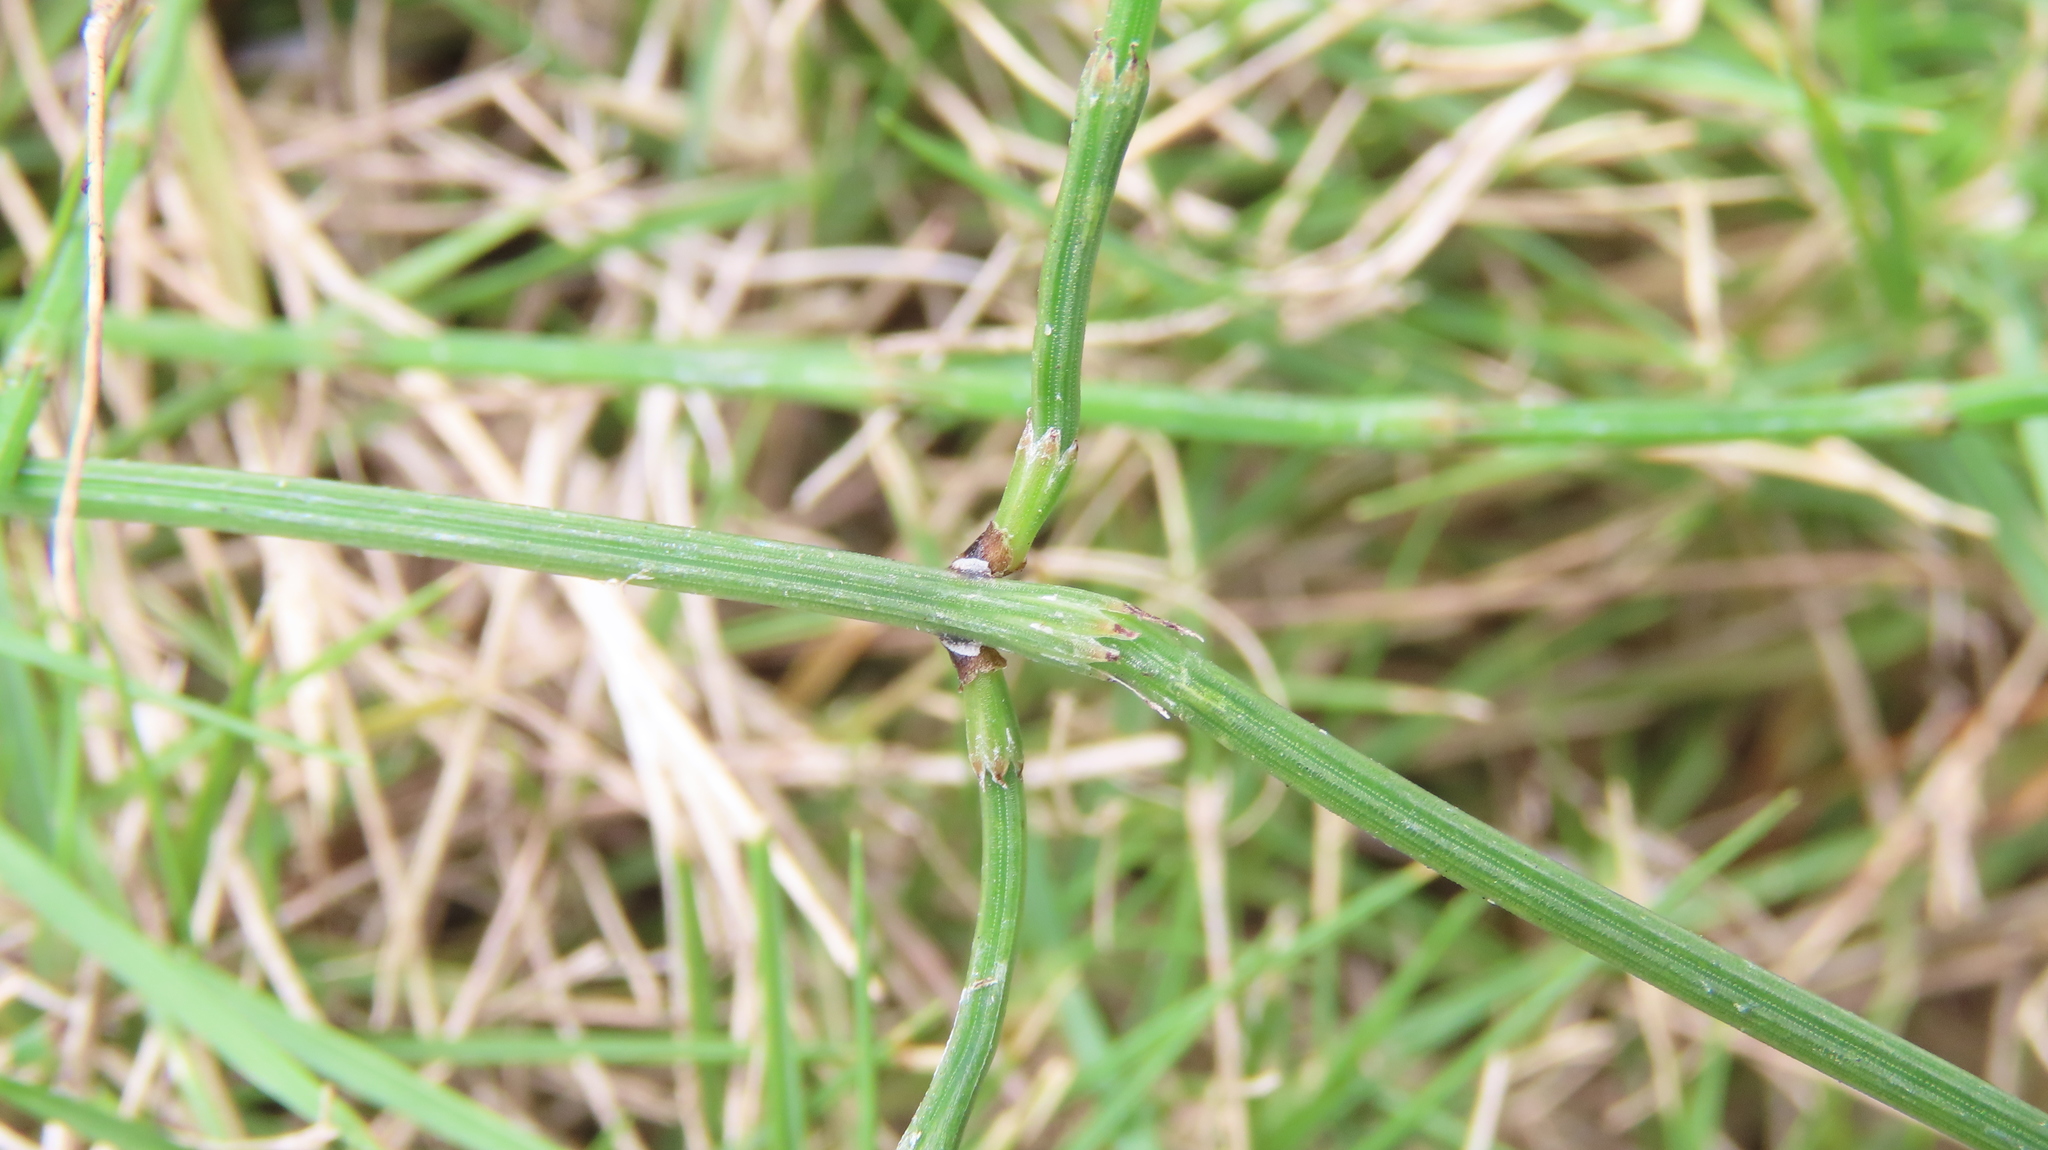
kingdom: Plantae
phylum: Tracheophyta
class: Polypodiopsida
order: Equisetales
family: Equisetaceae
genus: Equisetum
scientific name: Equisetum ramosissimum
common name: Branched horsetail
